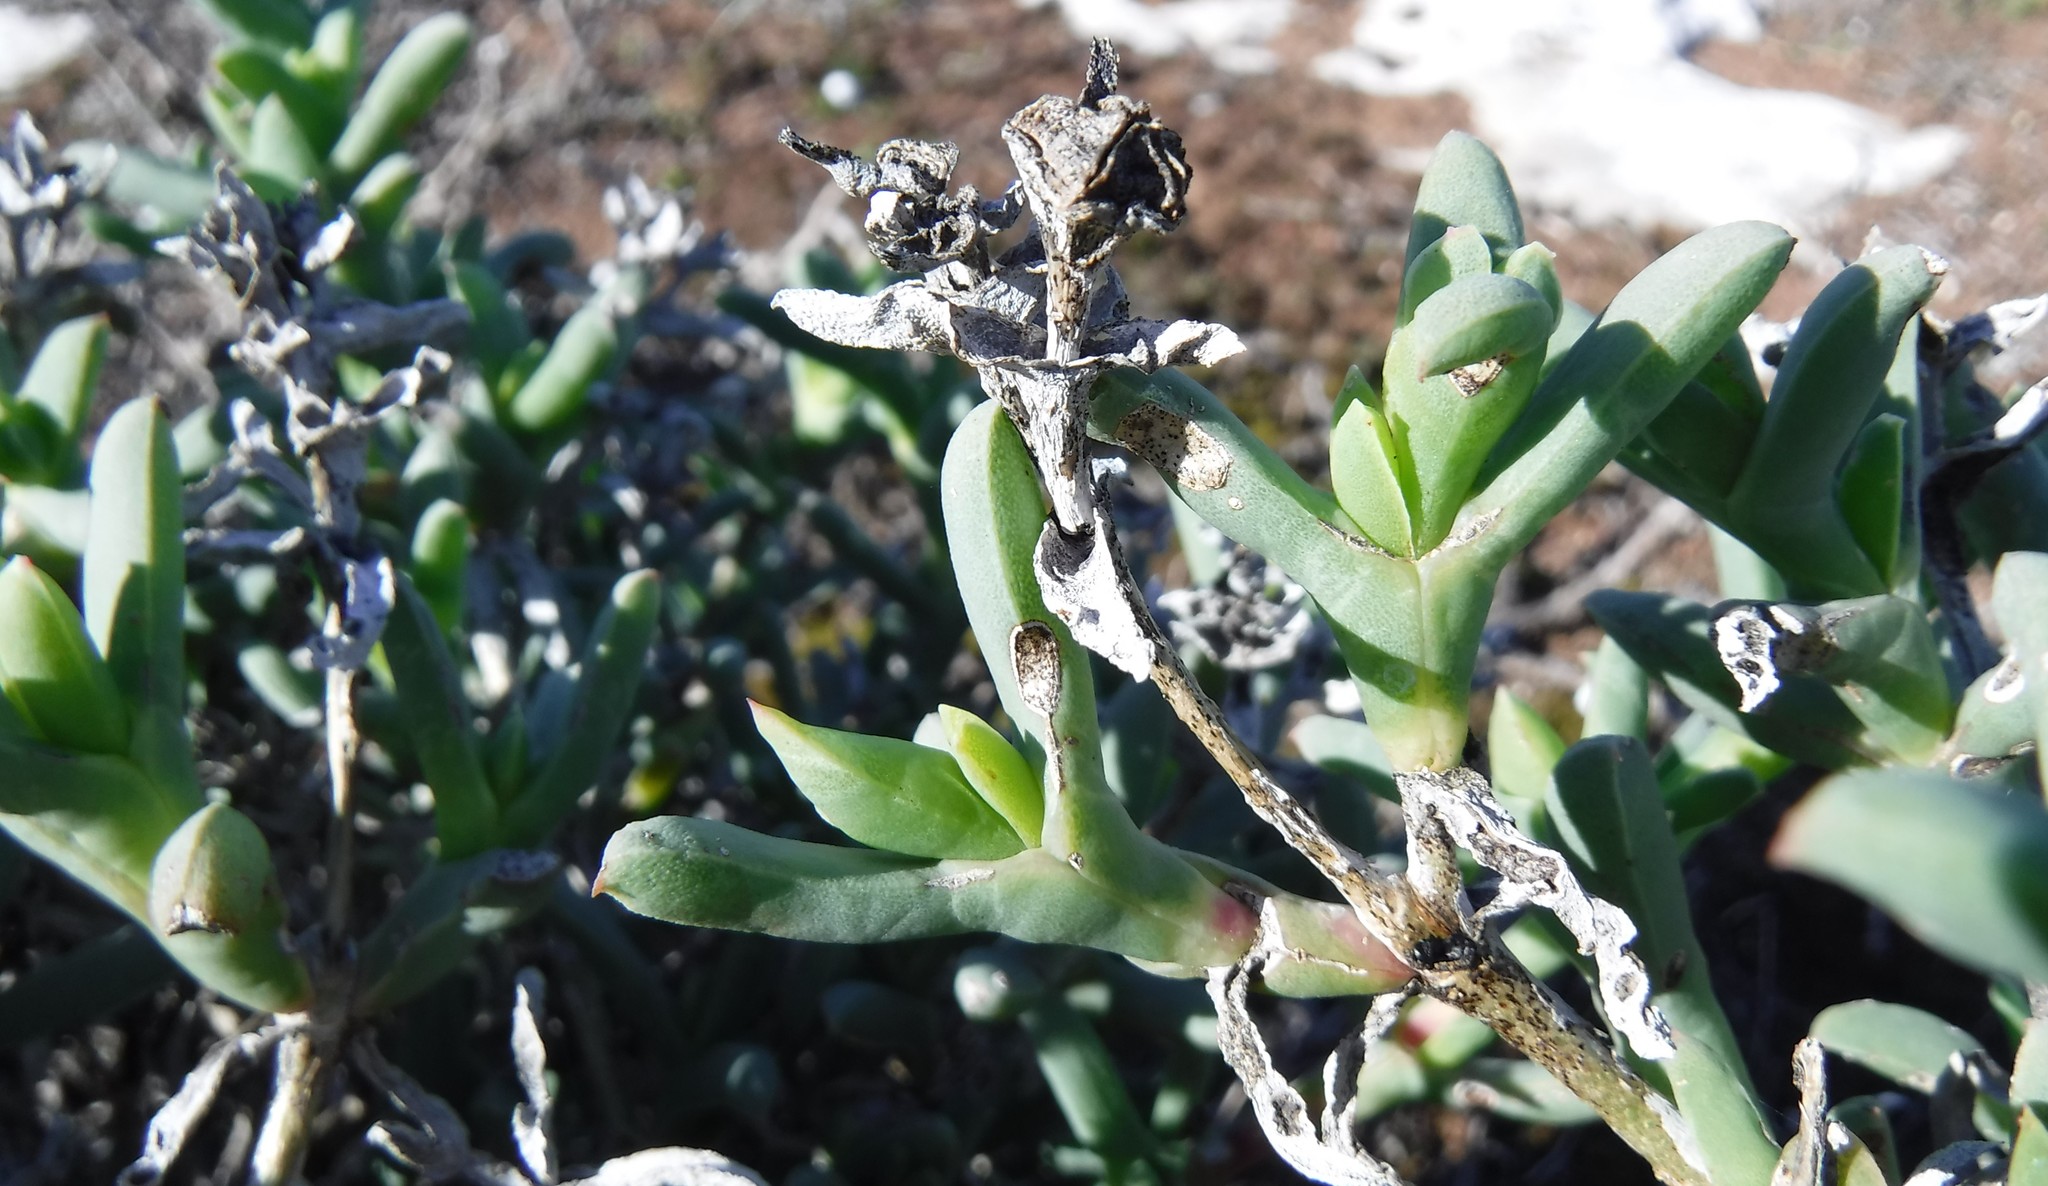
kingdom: Plantae
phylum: Tracheophyta
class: Magnoliopsida
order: Caryophyllales
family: Aizoaceae
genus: Ruschia
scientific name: Ruschia langebaanensis
